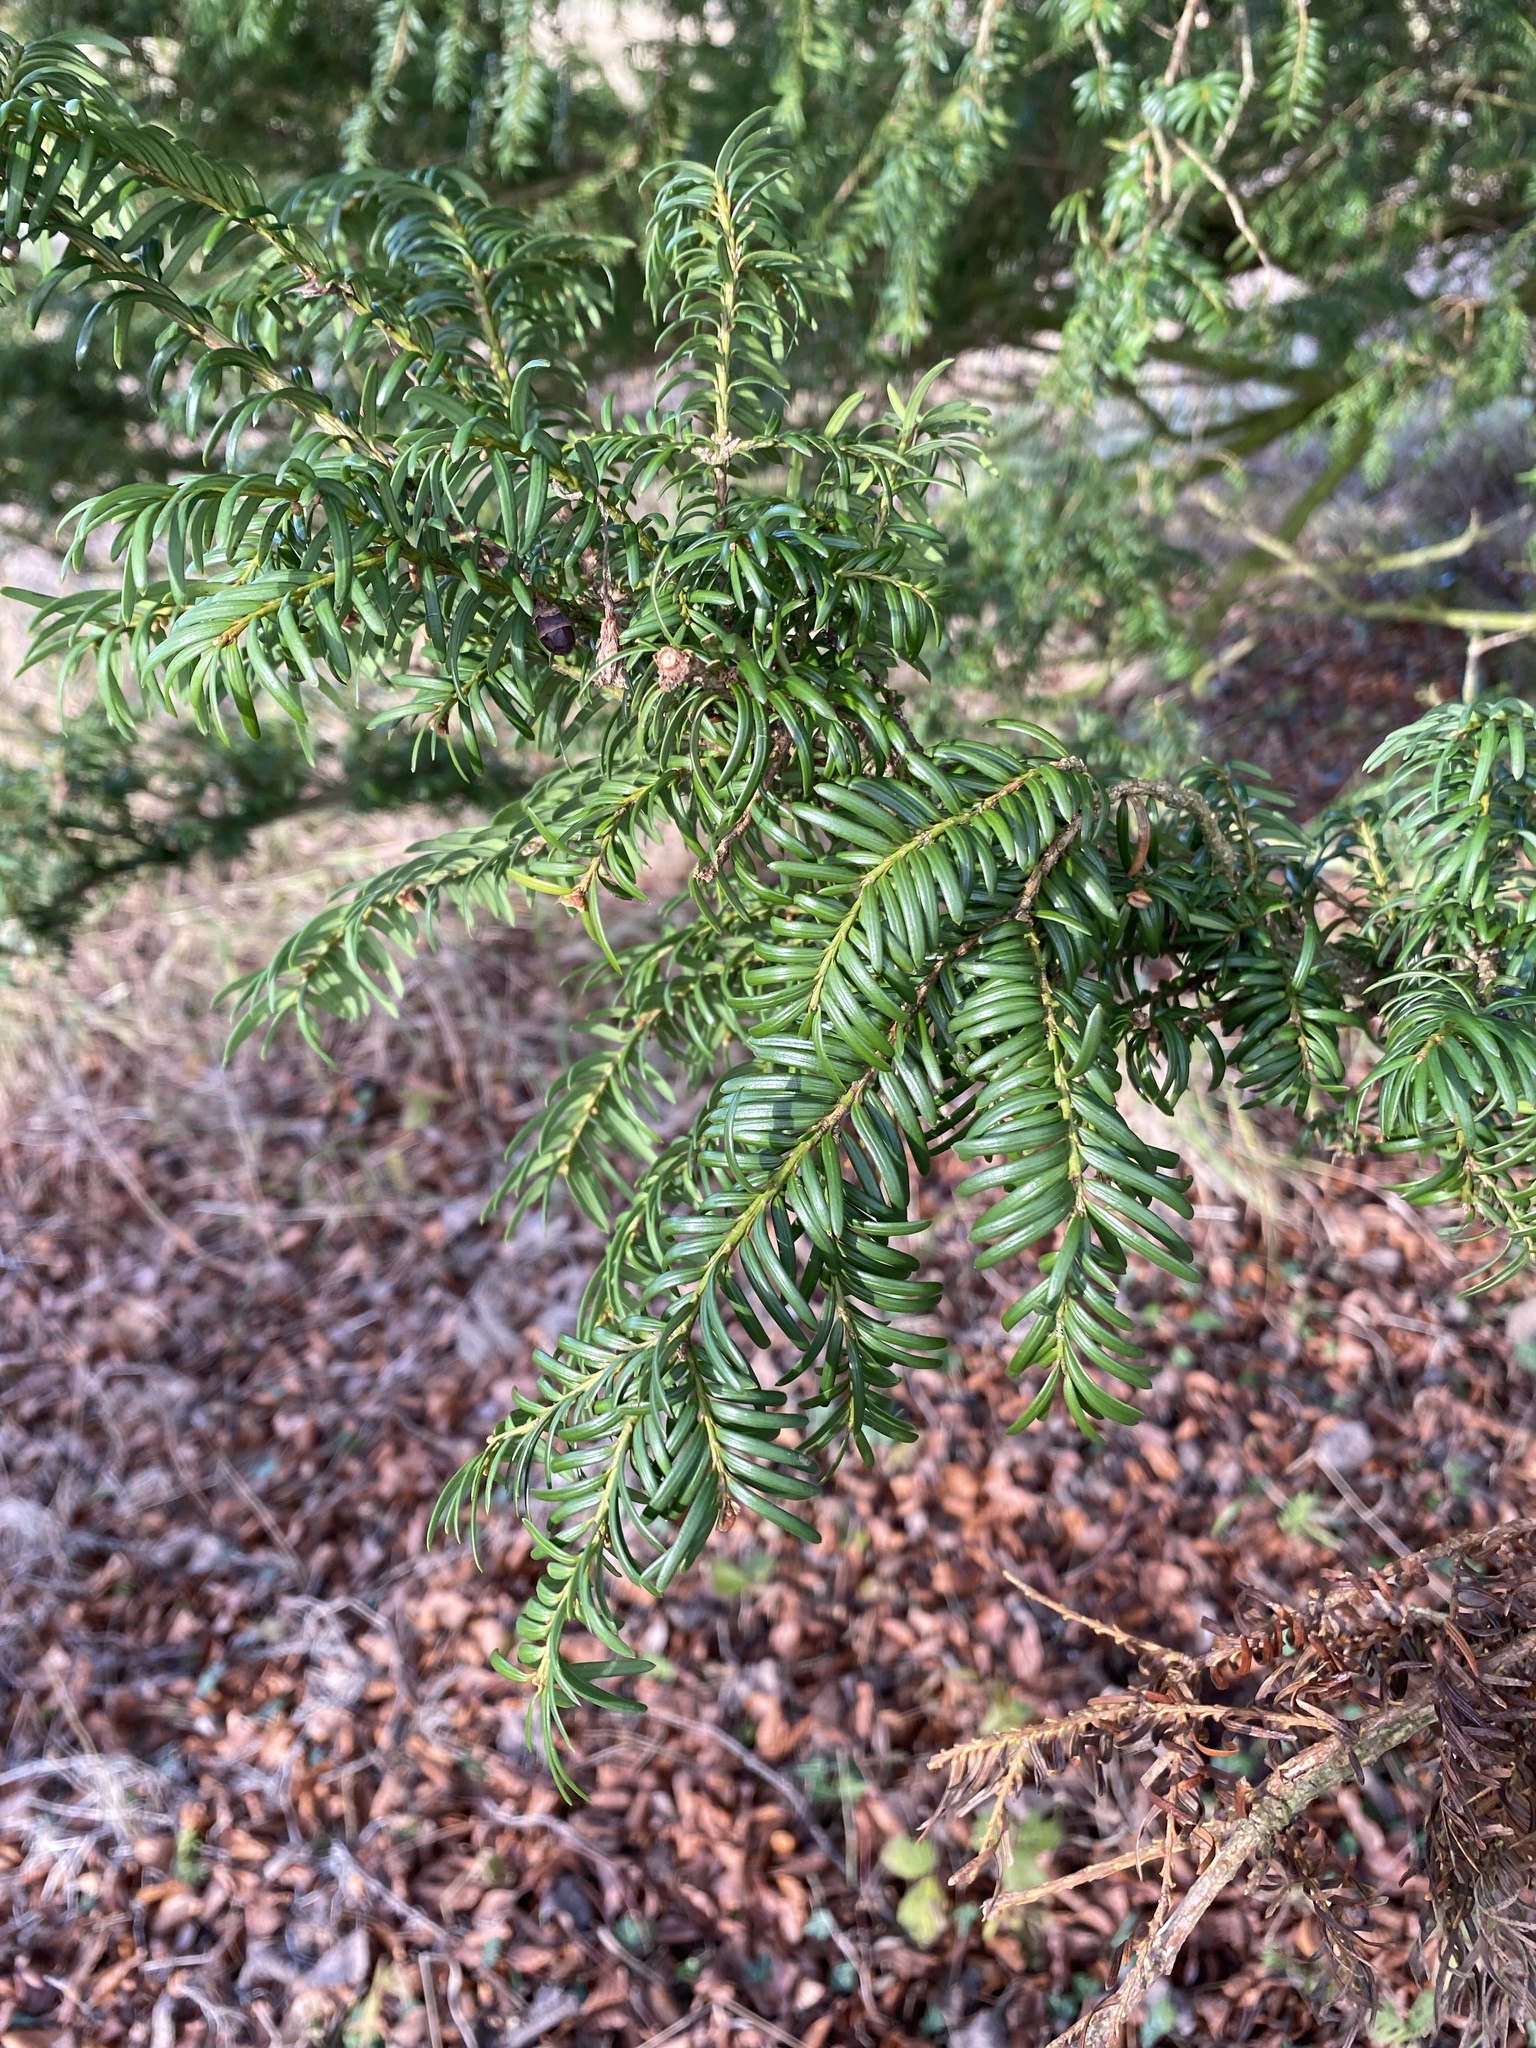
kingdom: Plantae
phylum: Tracheophyta
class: Pinopsida
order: Pinales
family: Taxaceae
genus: Taxus
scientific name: Taxus baccata
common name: Yew
